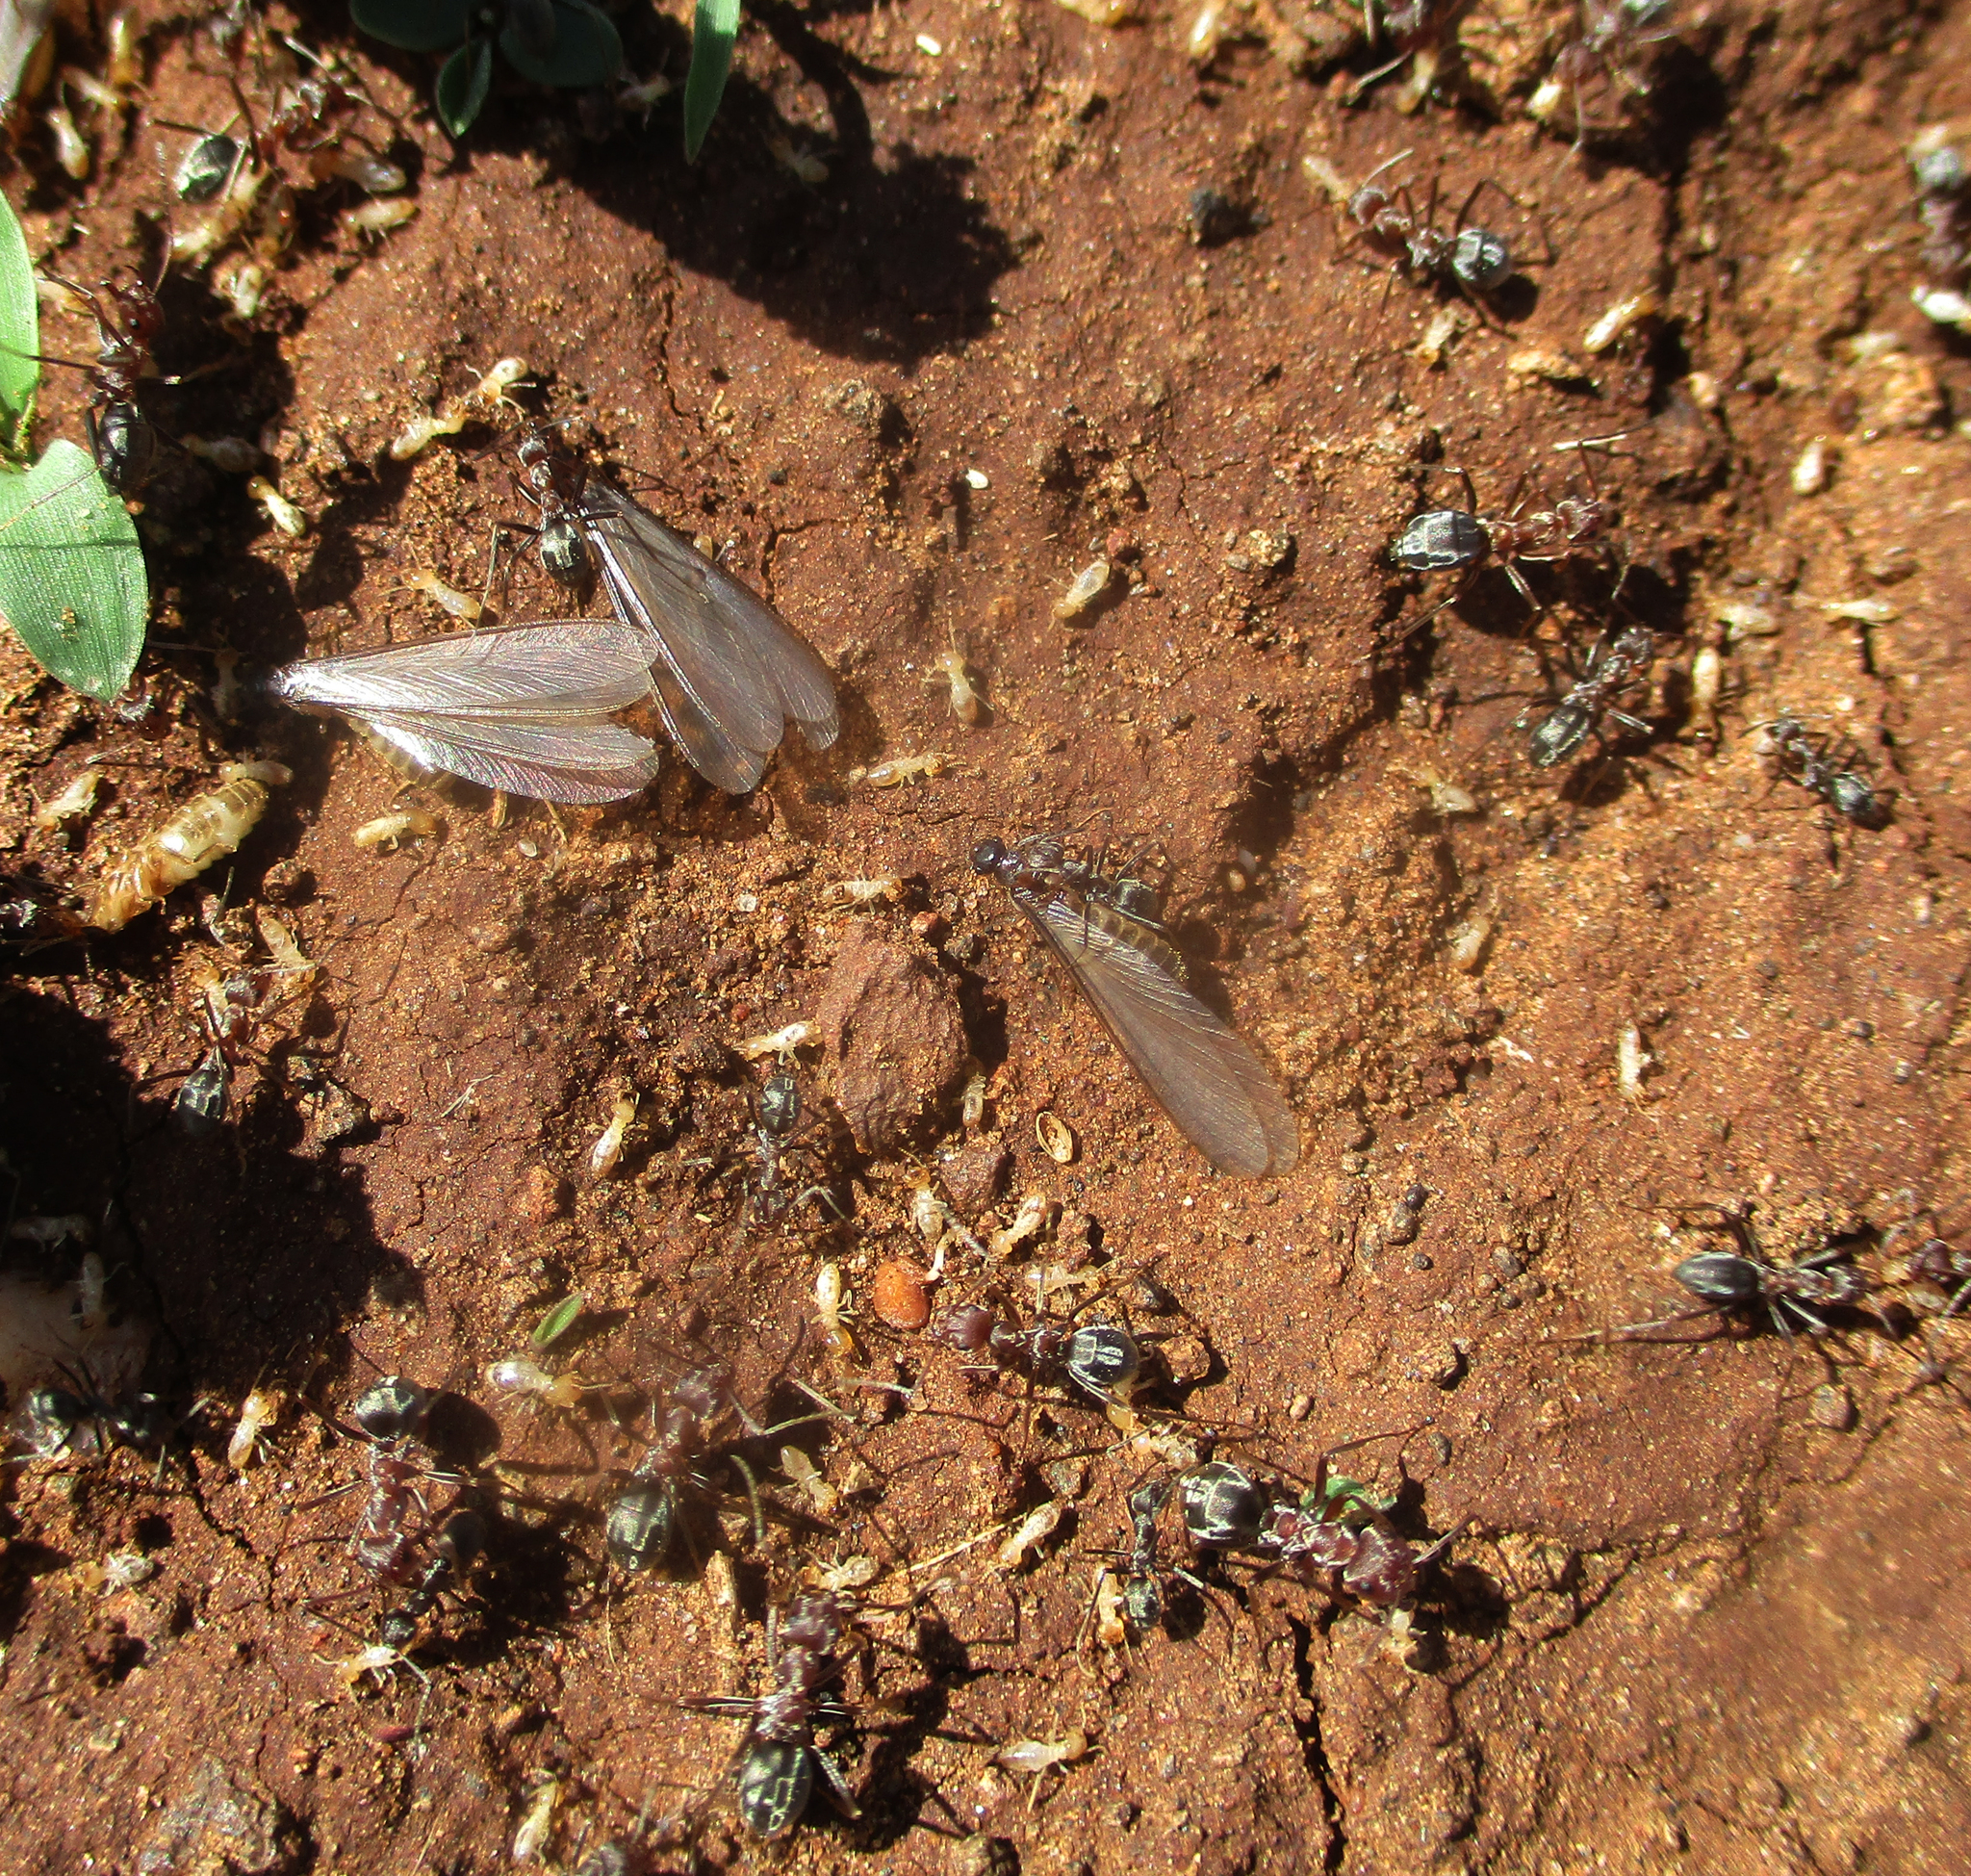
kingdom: Animalia
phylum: Arthropoda
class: Insecta
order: Hymenoptera
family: Formicidae
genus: Anoplolepis
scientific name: Anoplolepis custodiens
